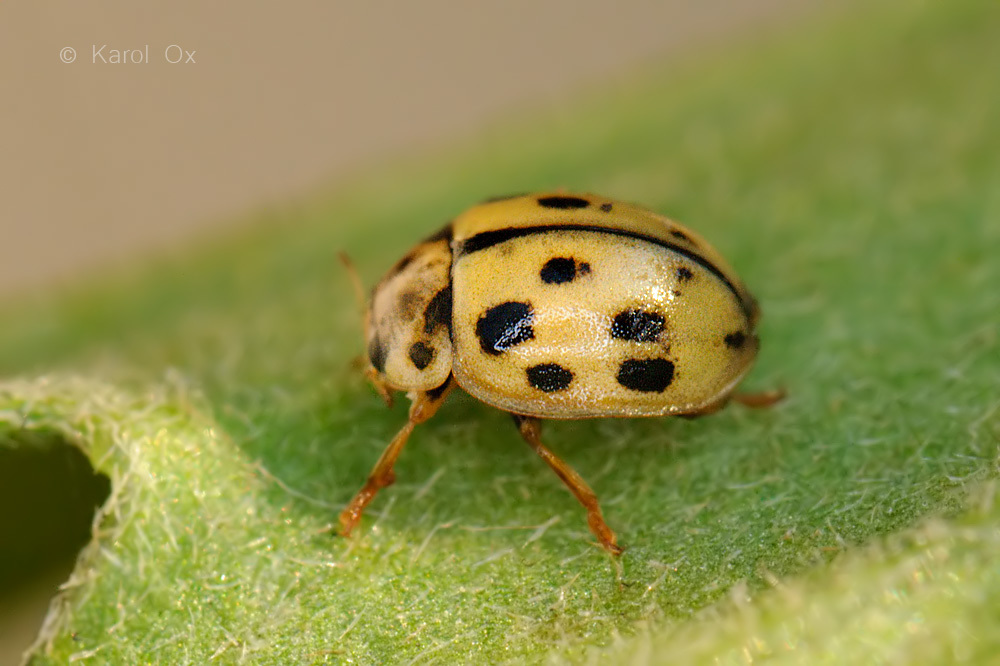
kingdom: Animalia
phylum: Arthropoda
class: Insecta
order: Coleoptera
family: Coccinellidae
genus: Propylaea
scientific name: Propylaea quatuordecimpunctata
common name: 14-spotted ladybird beetle
